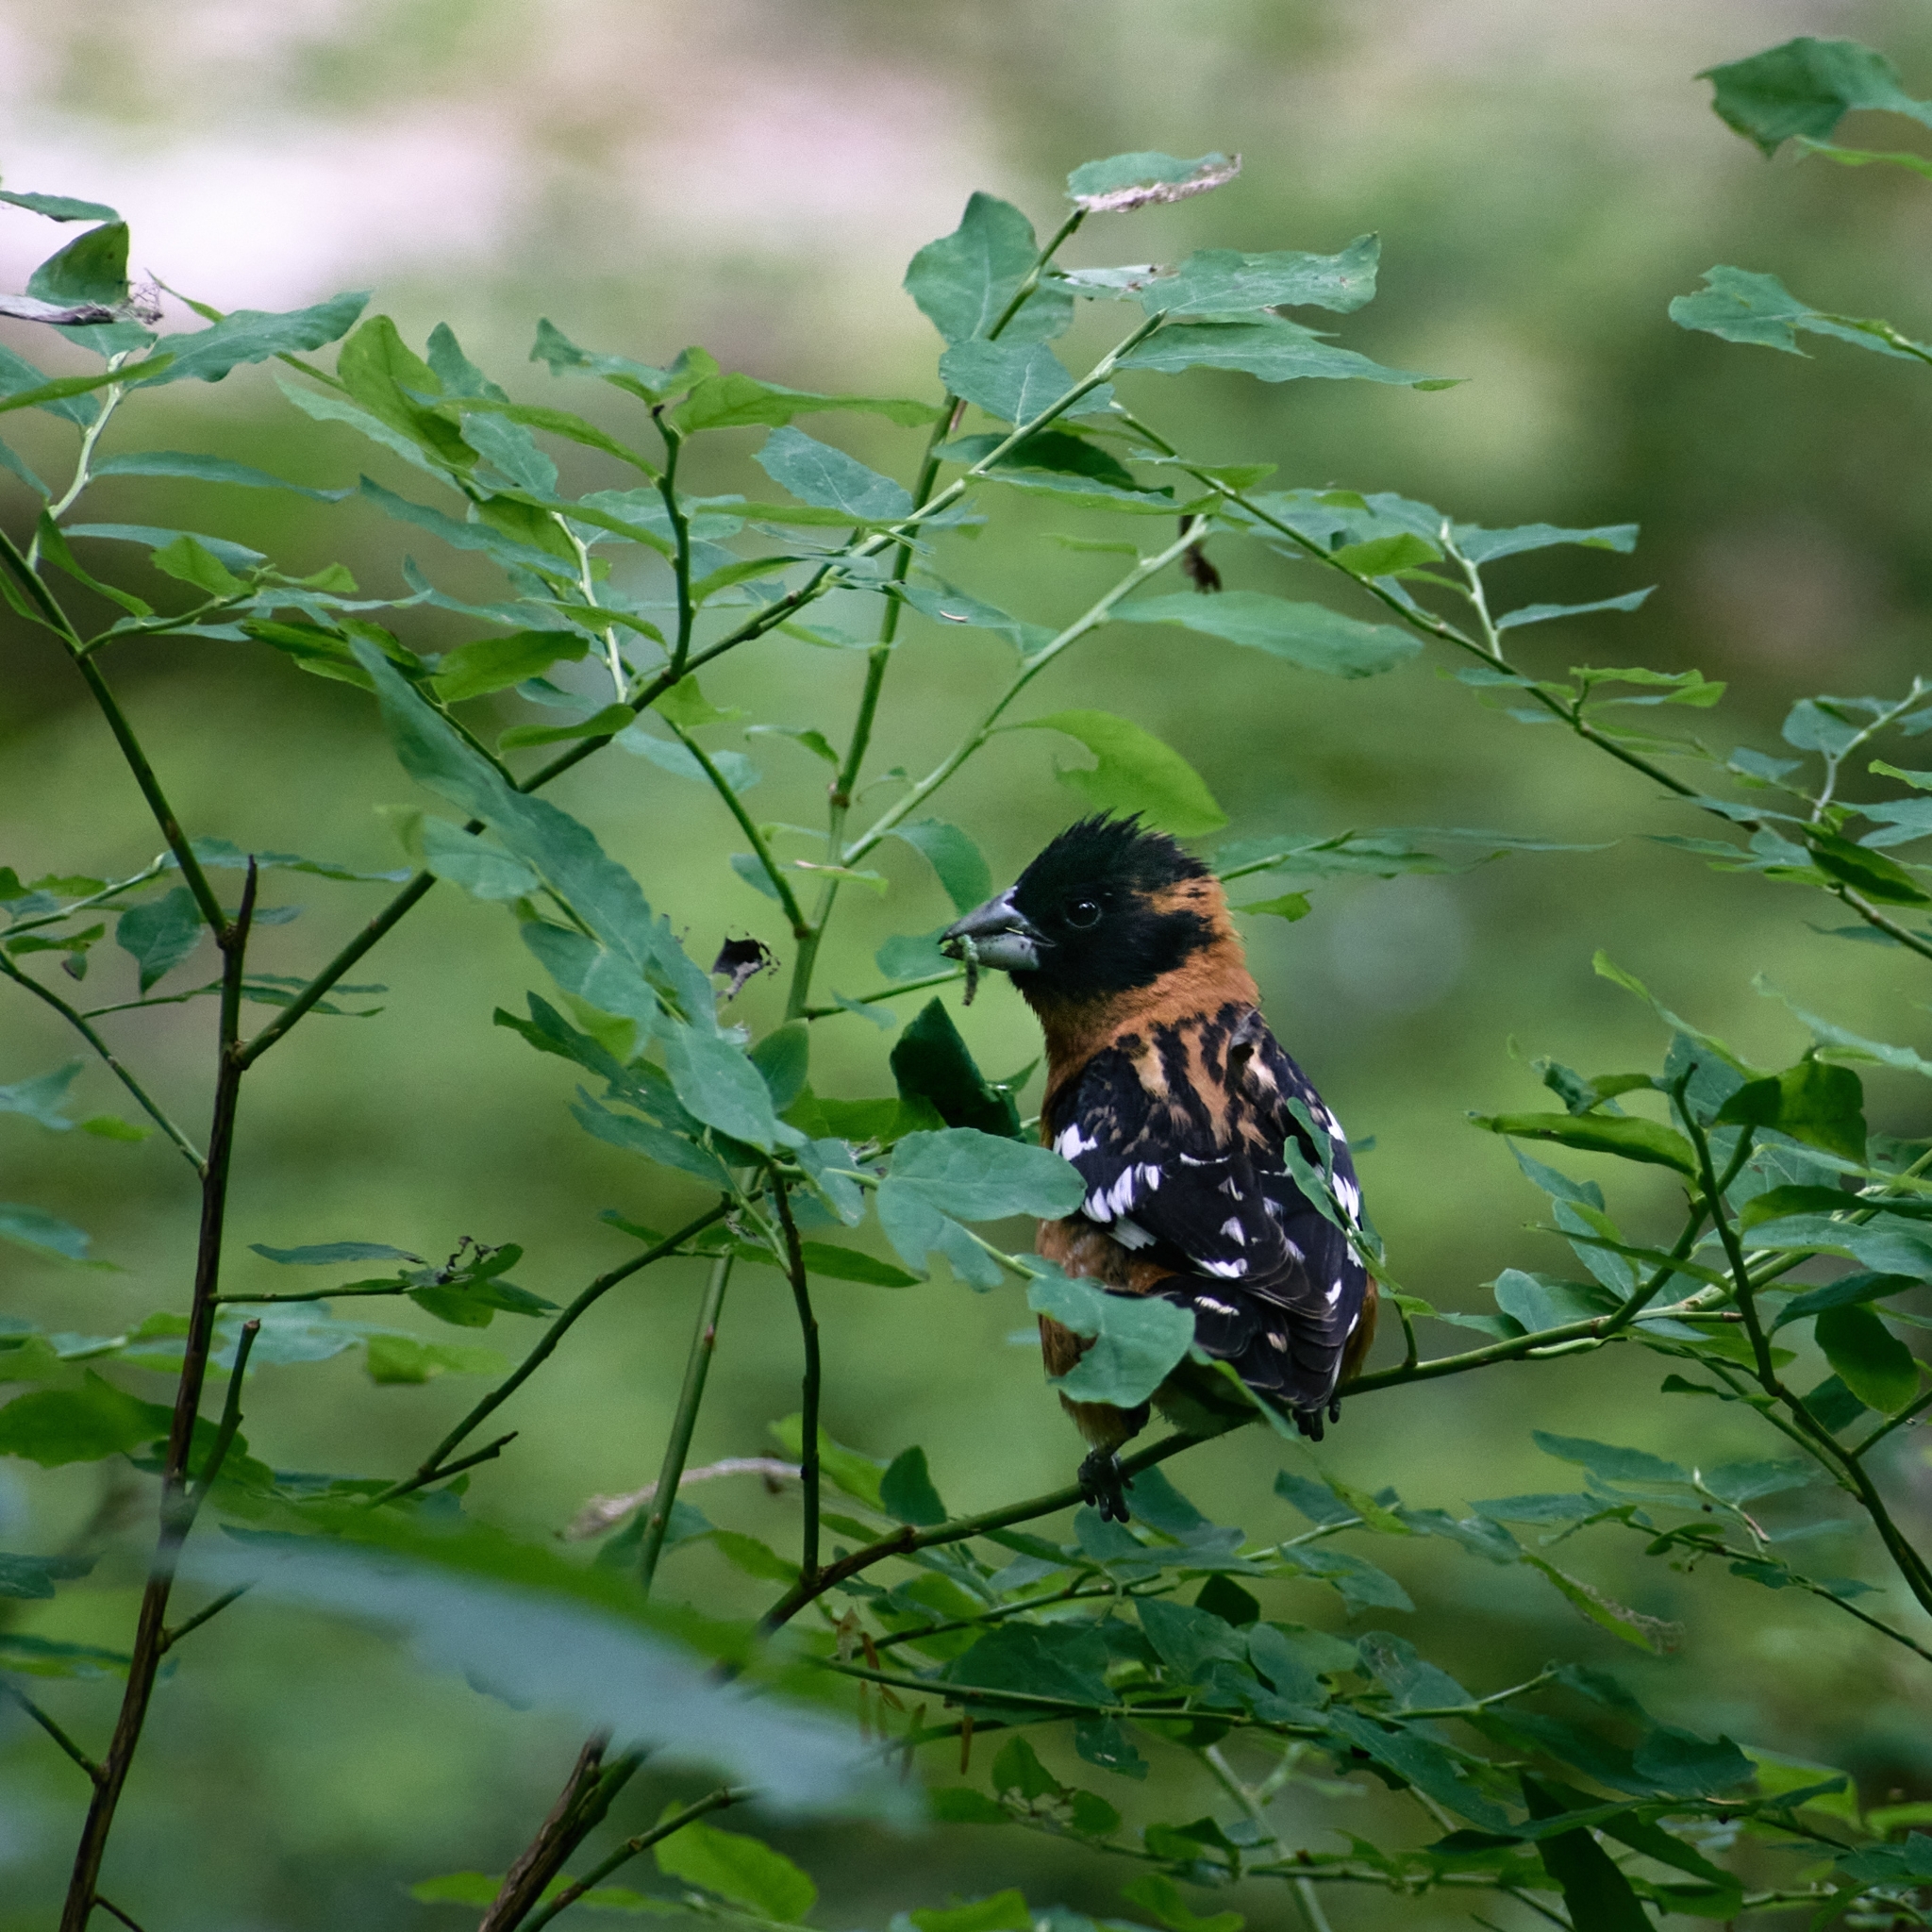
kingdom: Animalia
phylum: Chordata
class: Aves
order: Passeriformes
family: Cardinalidae
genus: Pheucticus
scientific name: Pheucticus melanocephalus
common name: Black-headed grosbeak
